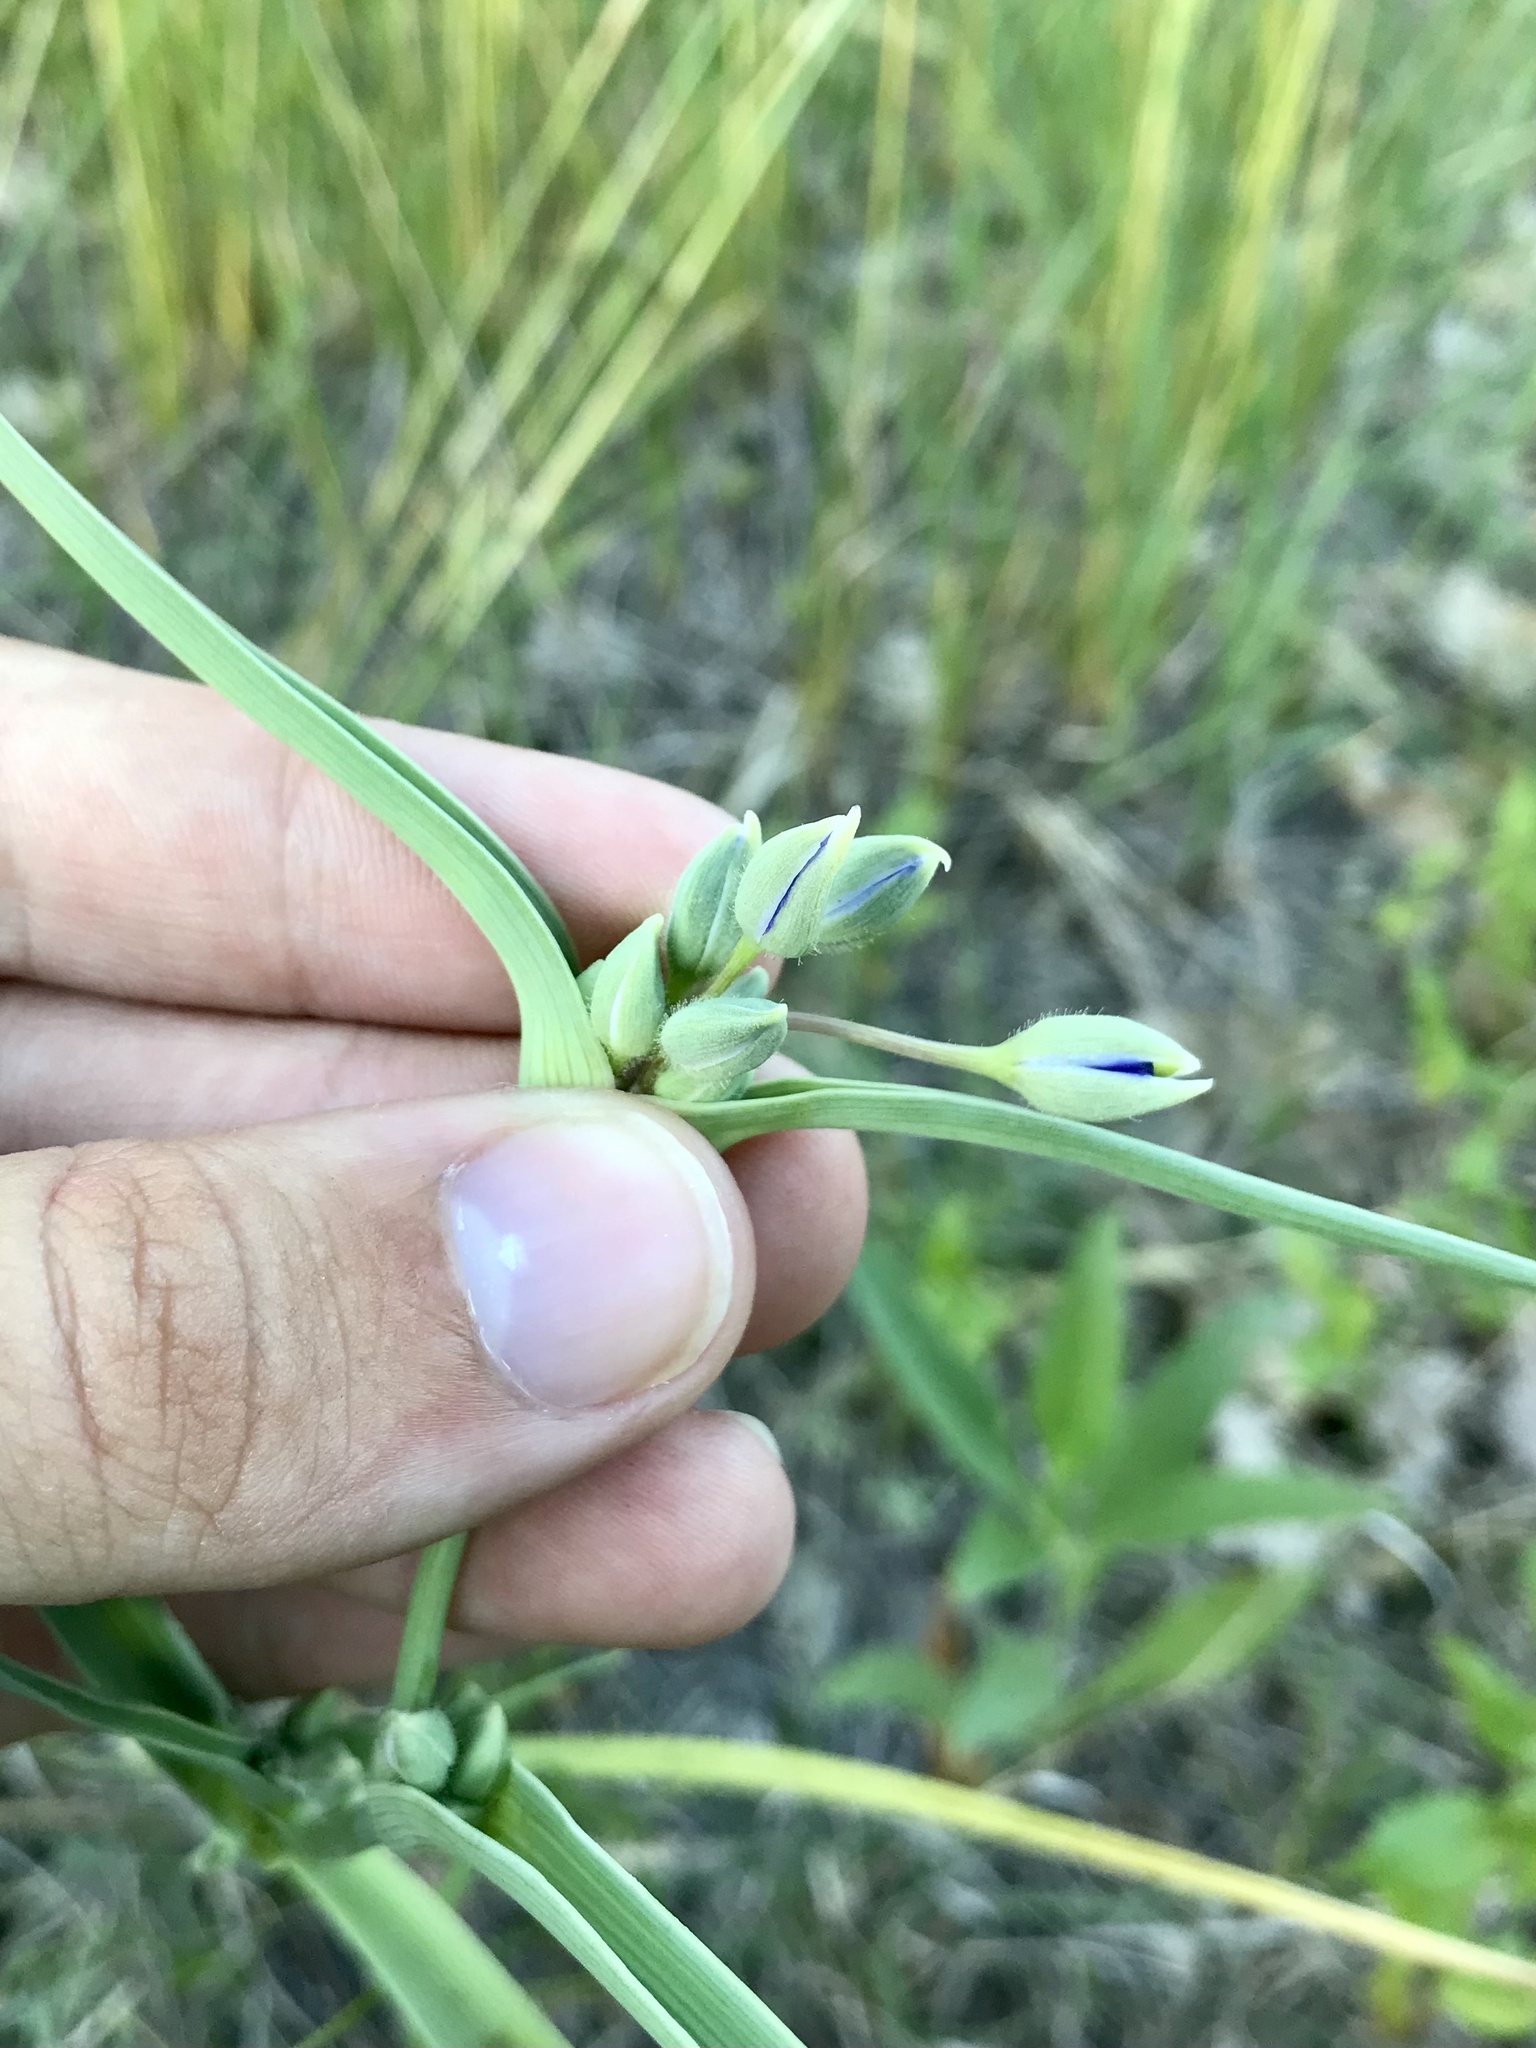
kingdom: Plantae
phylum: Tracheophyta
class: Liliopsida
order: Commelinales
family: Commelinaceae
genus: Tradescantia
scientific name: Tradescantia occidentalis
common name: Prairie spiderwort
